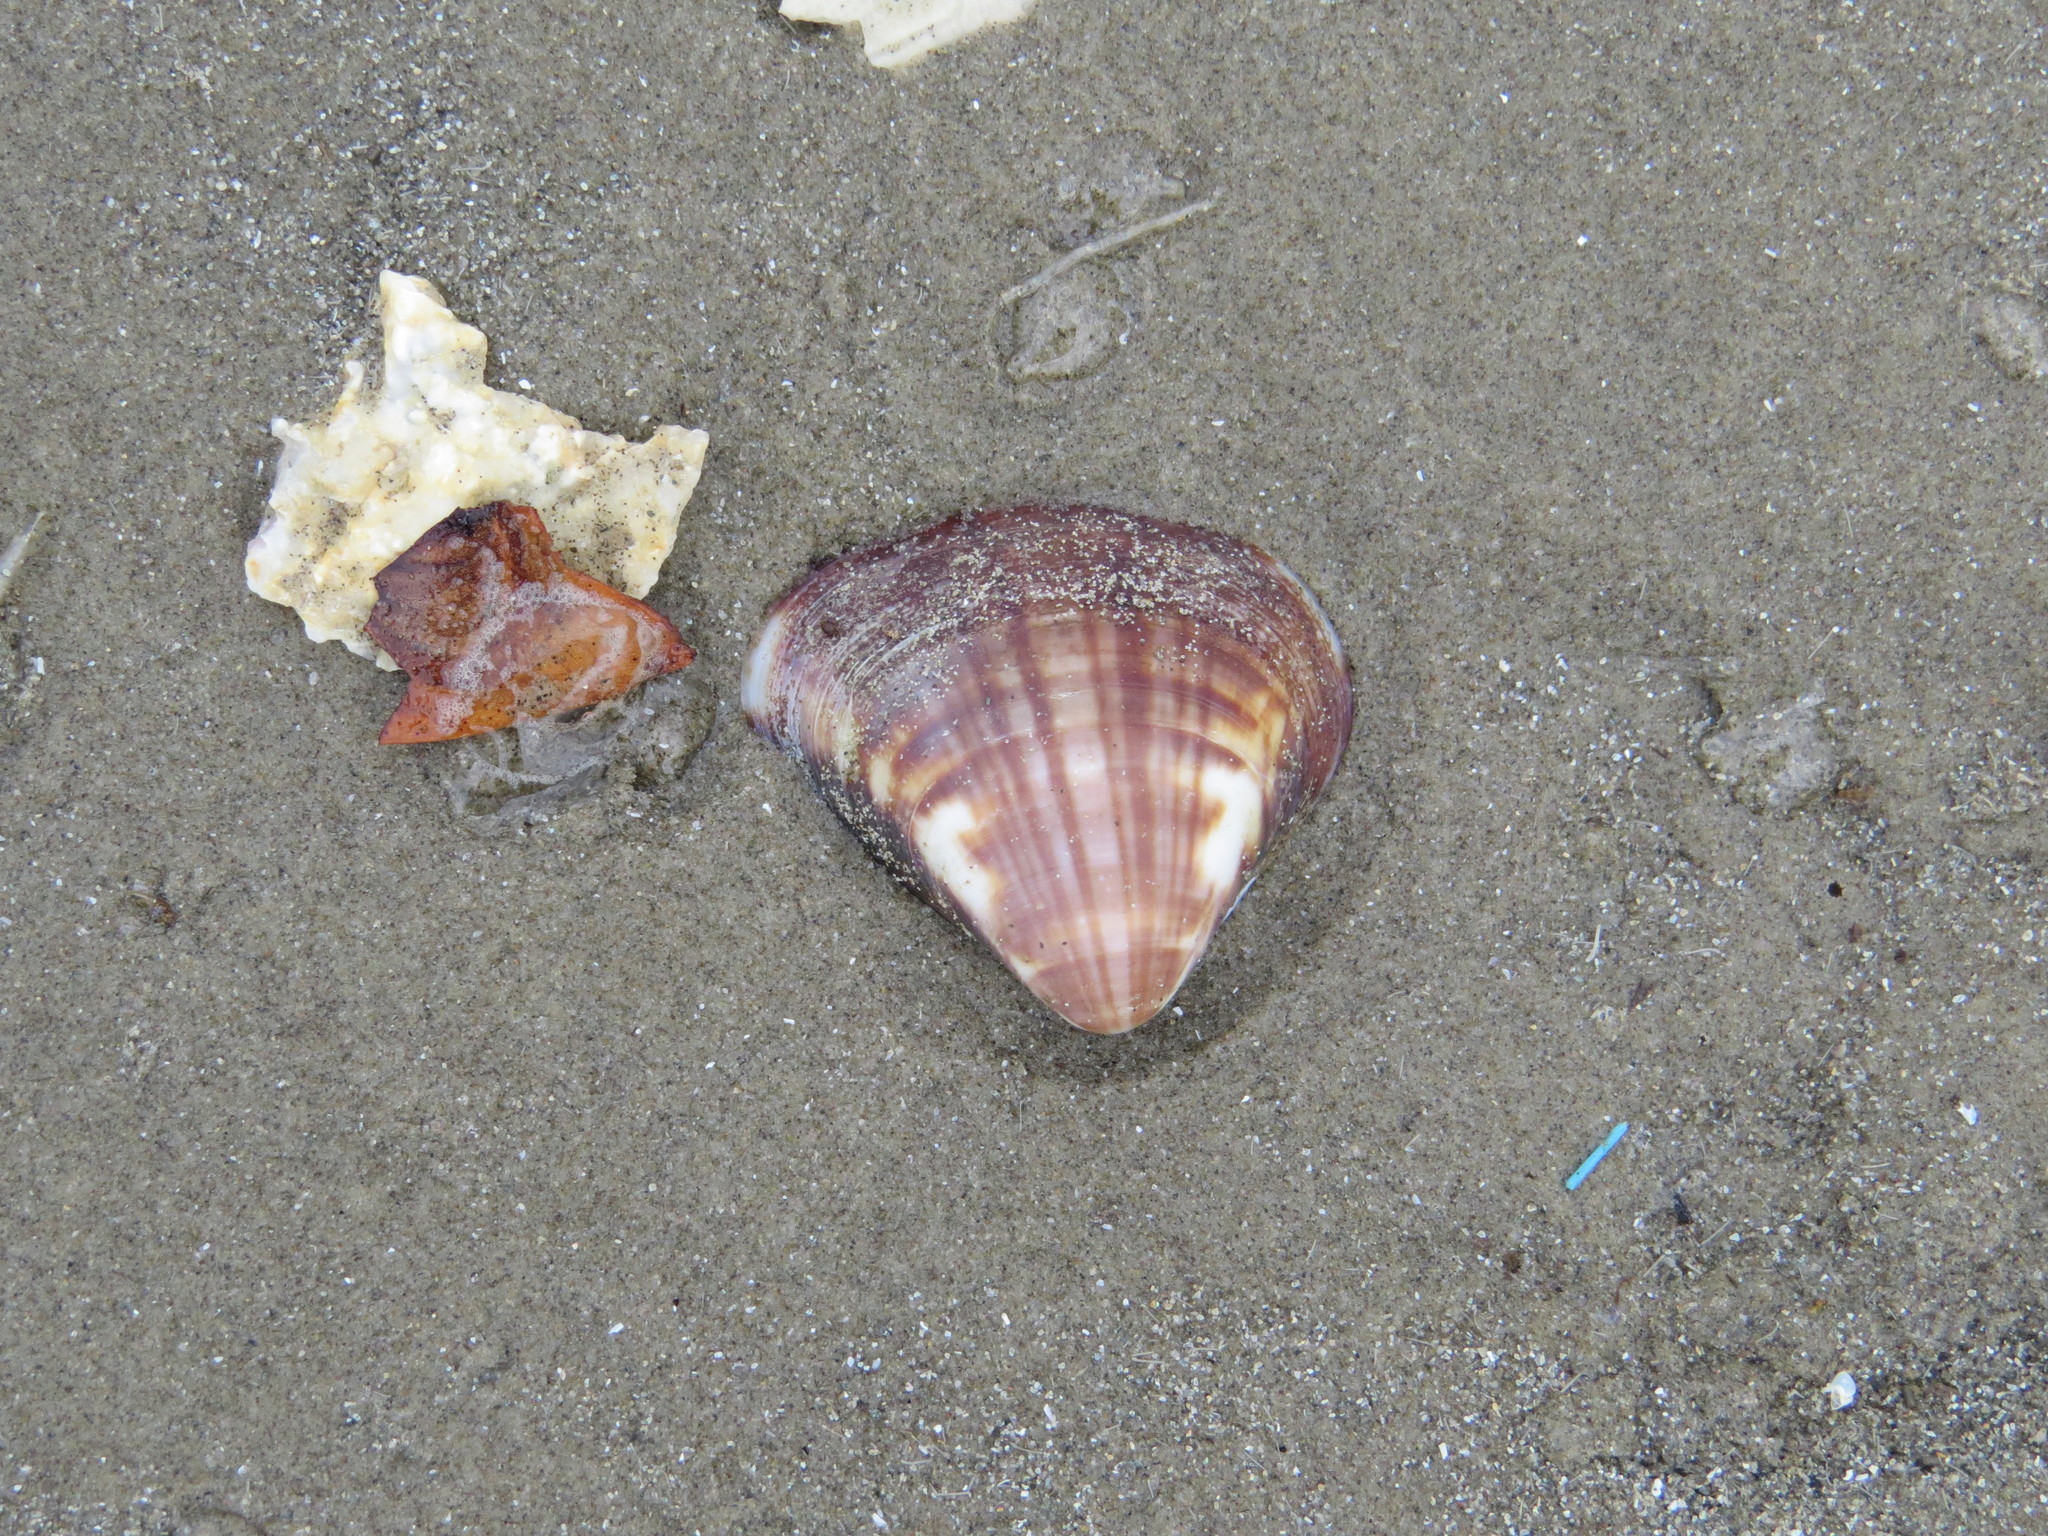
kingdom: Animalia
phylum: Mollusca
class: Bivalvia
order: Venerida
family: Veneridae
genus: Tivela
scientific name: Tivela mactroides
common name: Trigonal tivela
